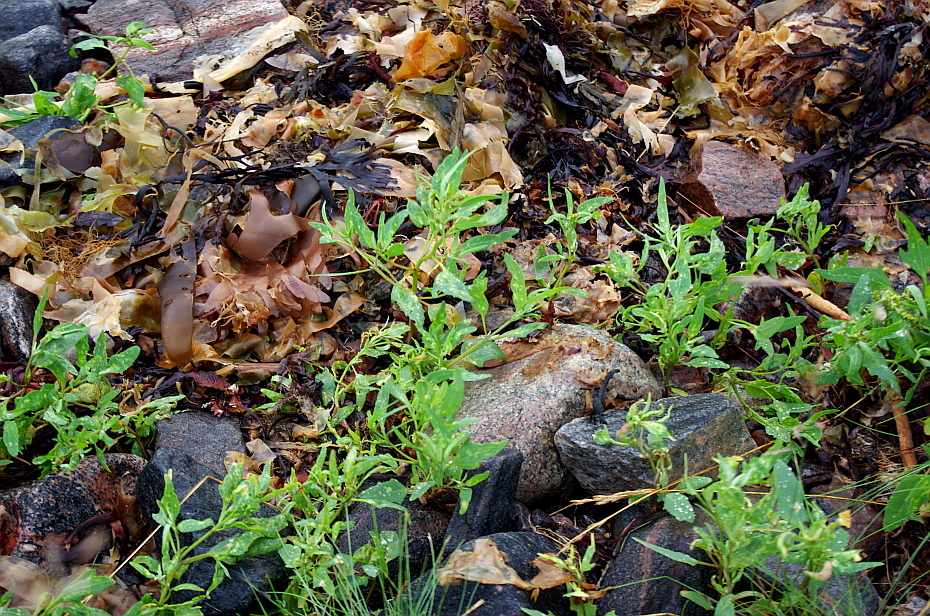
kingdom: Plantae
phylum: Tracheophyta
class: Magnoliopsida
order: Caryophyllales
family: Amaranthaceae
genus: Atriplex
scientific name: Atriplex nudicaulis
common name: Baltic orache
